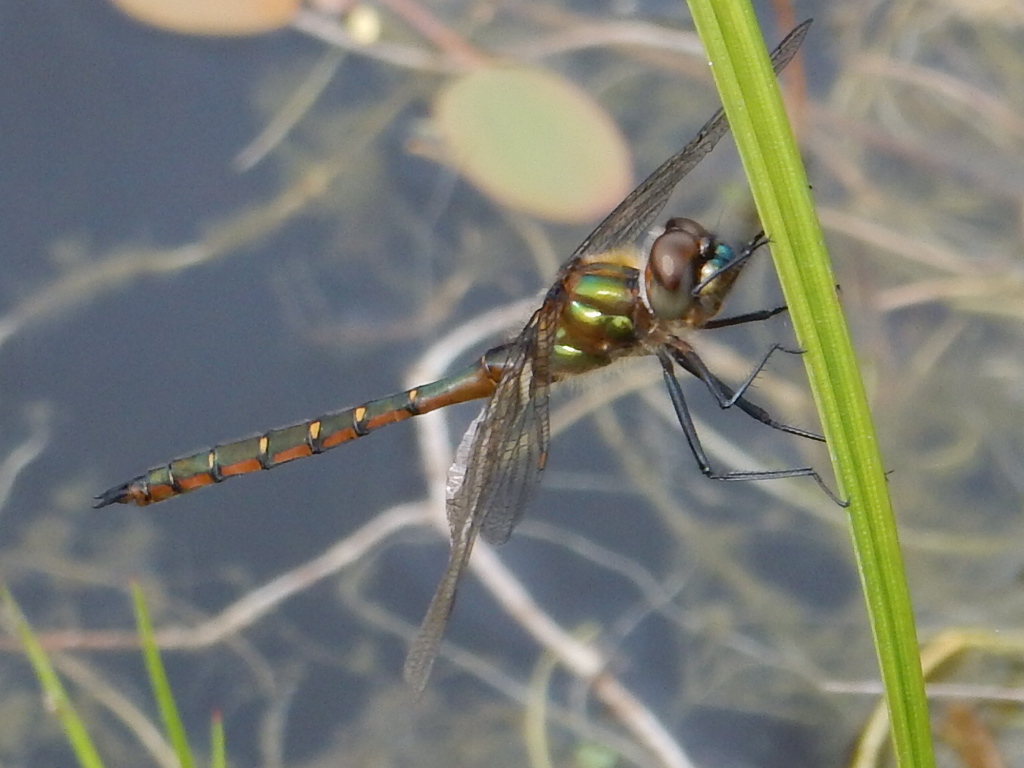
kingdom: Animalia
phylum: Arthropoda
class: Insecta
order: Odonata
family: Corduliidae
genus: Procordulia
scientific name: Procordulia smithii
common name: Ranger dragonfly
